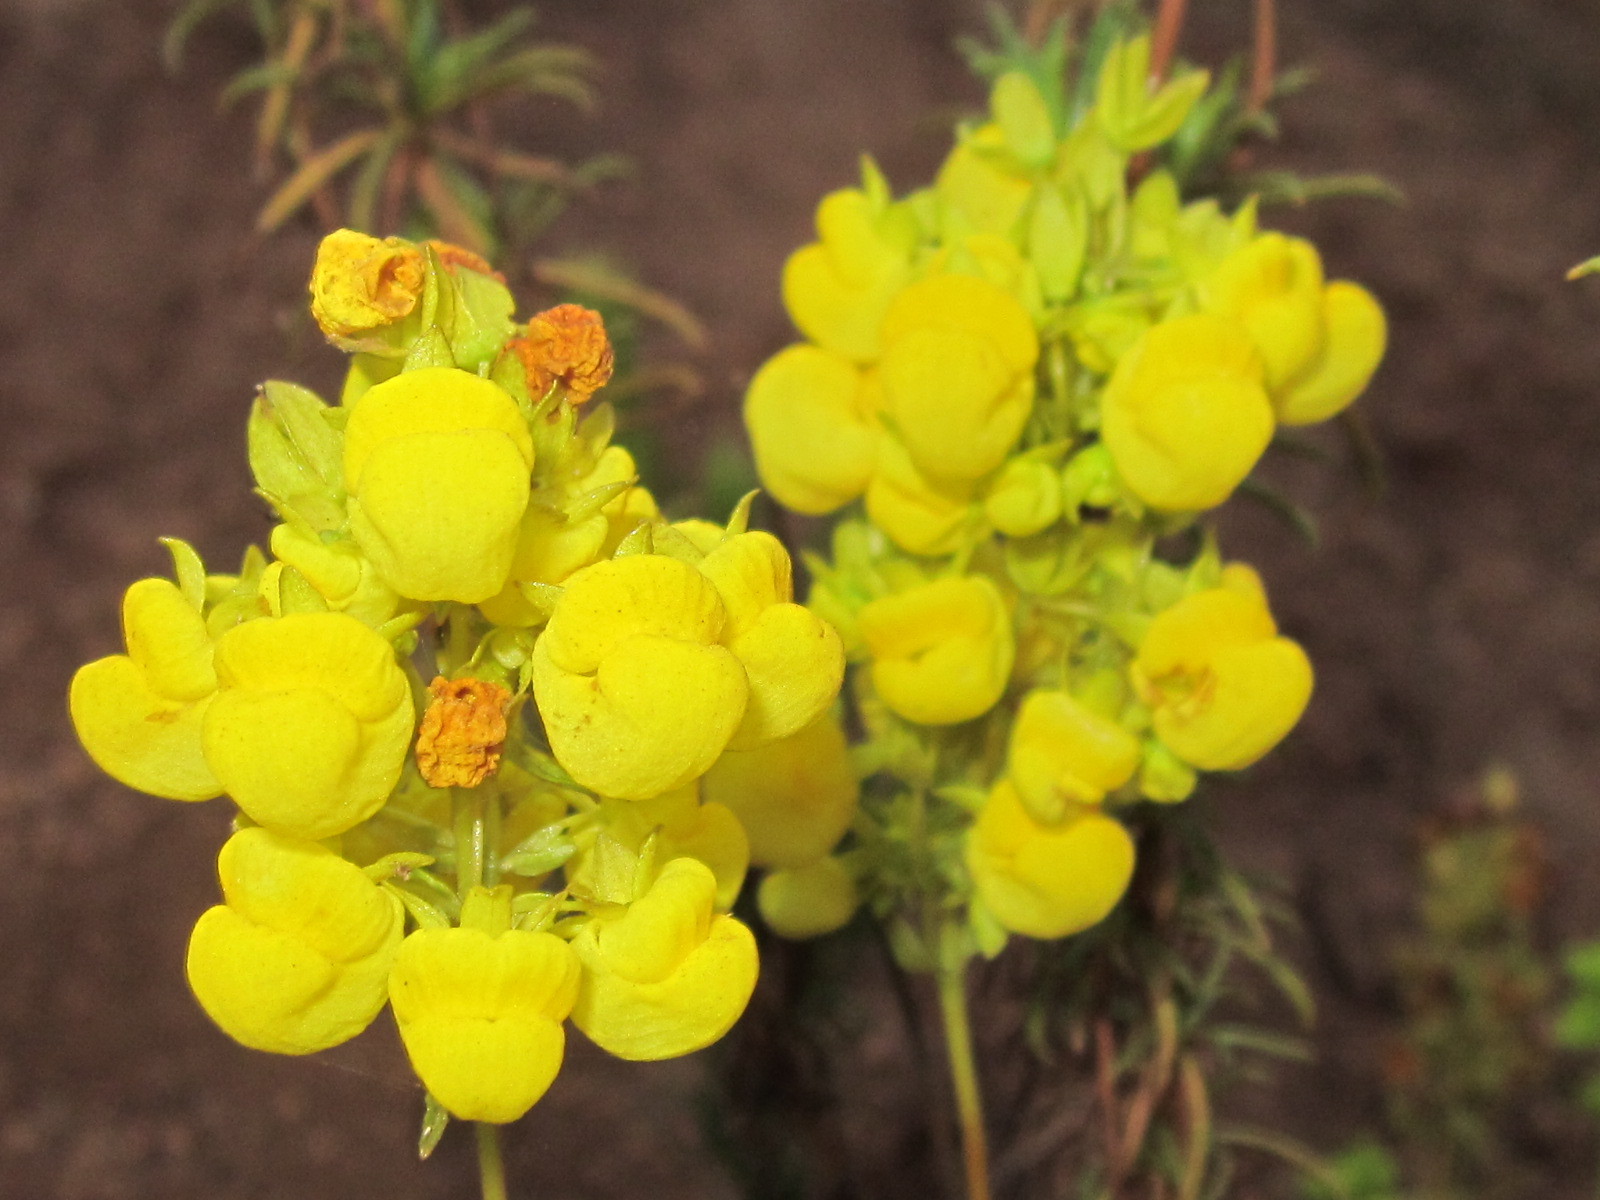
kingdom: Plantae
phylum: Tracheophyta
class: Magnoliopsida
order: Lamiales
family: Calceolariaceae
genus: Calceolaria
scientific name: Calceolaria thyrsiflora
